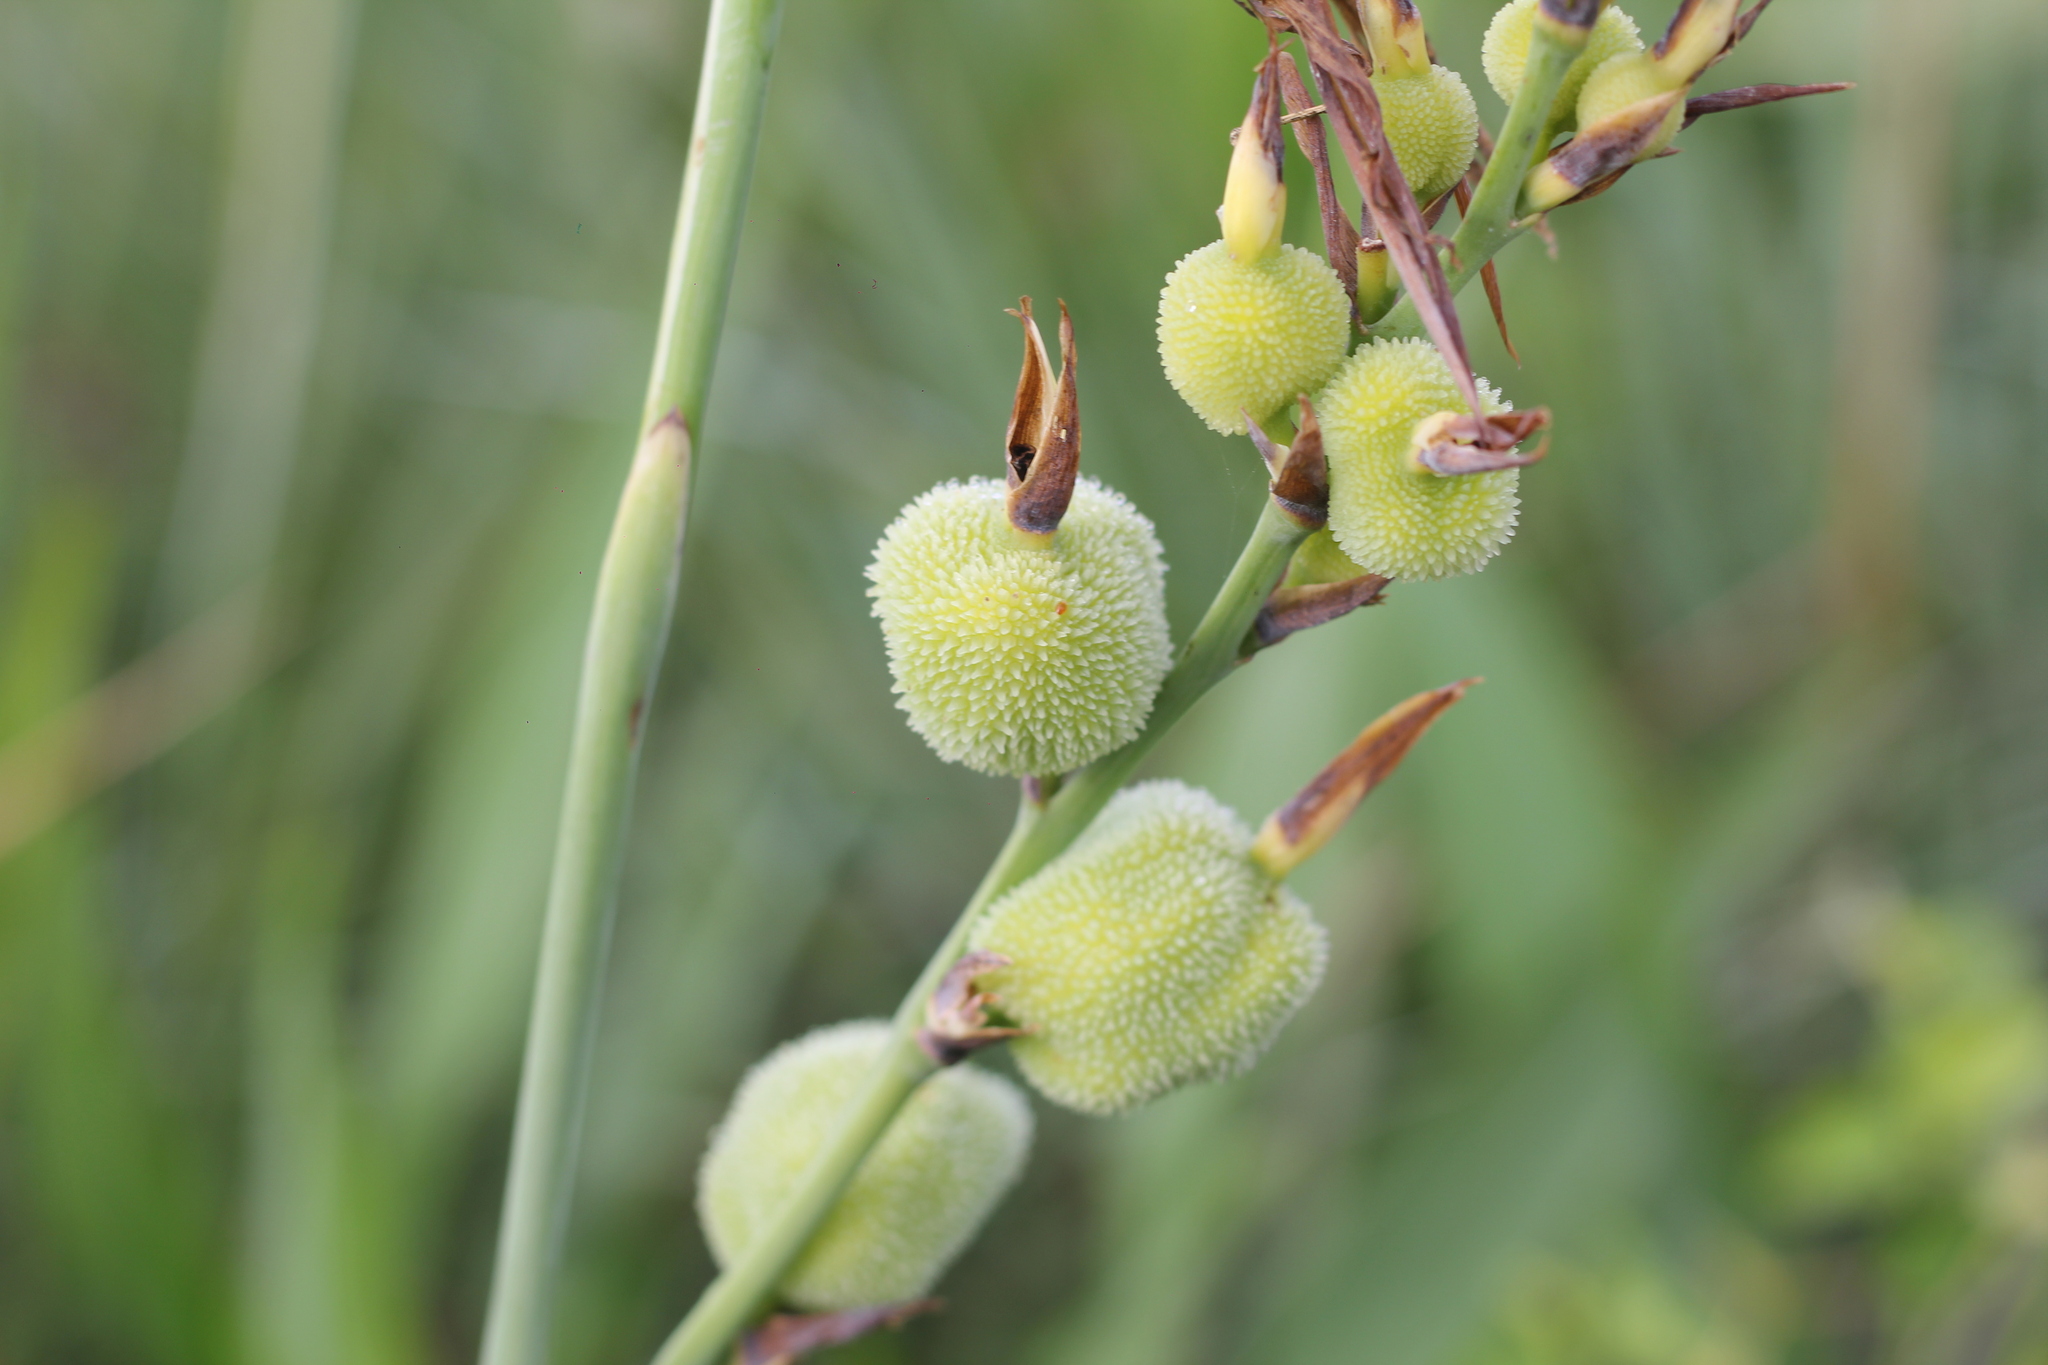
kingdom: Plantae
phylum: Tracheophyta
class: Liliopsida
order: Zingiberales
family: Cannaceae
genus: Canna
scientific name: Canna glauca
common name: Louisiana canna
